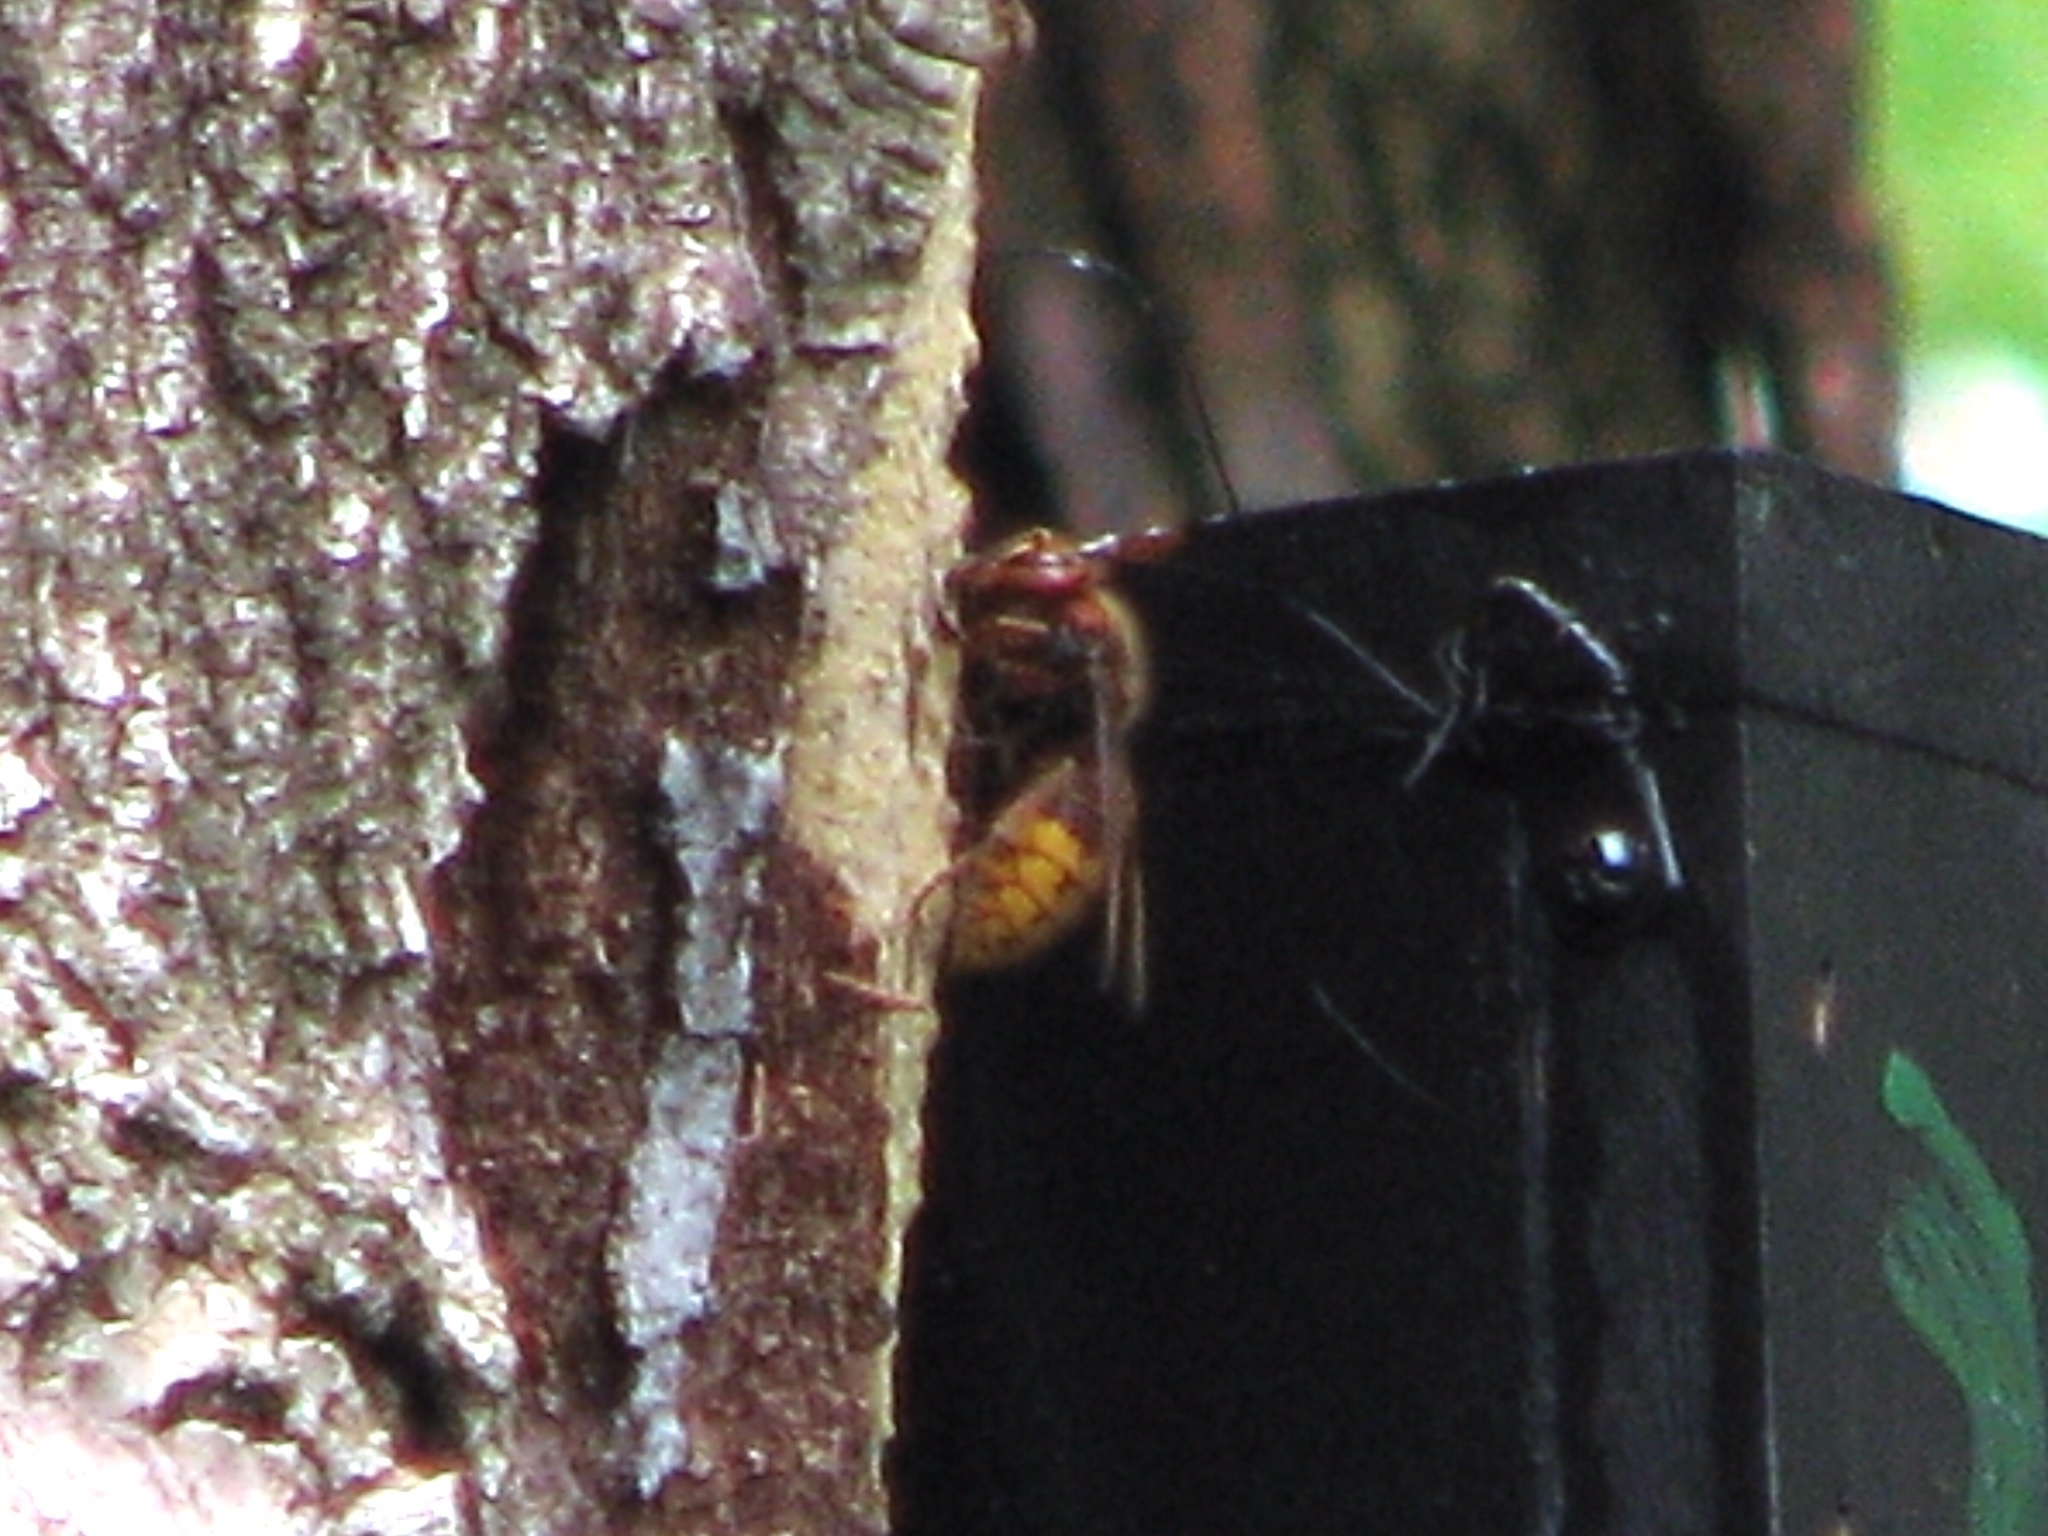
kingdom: Animalia
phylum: Arthropoda
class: Insecta
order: Hymenoptera
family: Vespidae
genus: Vespa
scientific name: Vespa crabro
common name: Hornet
